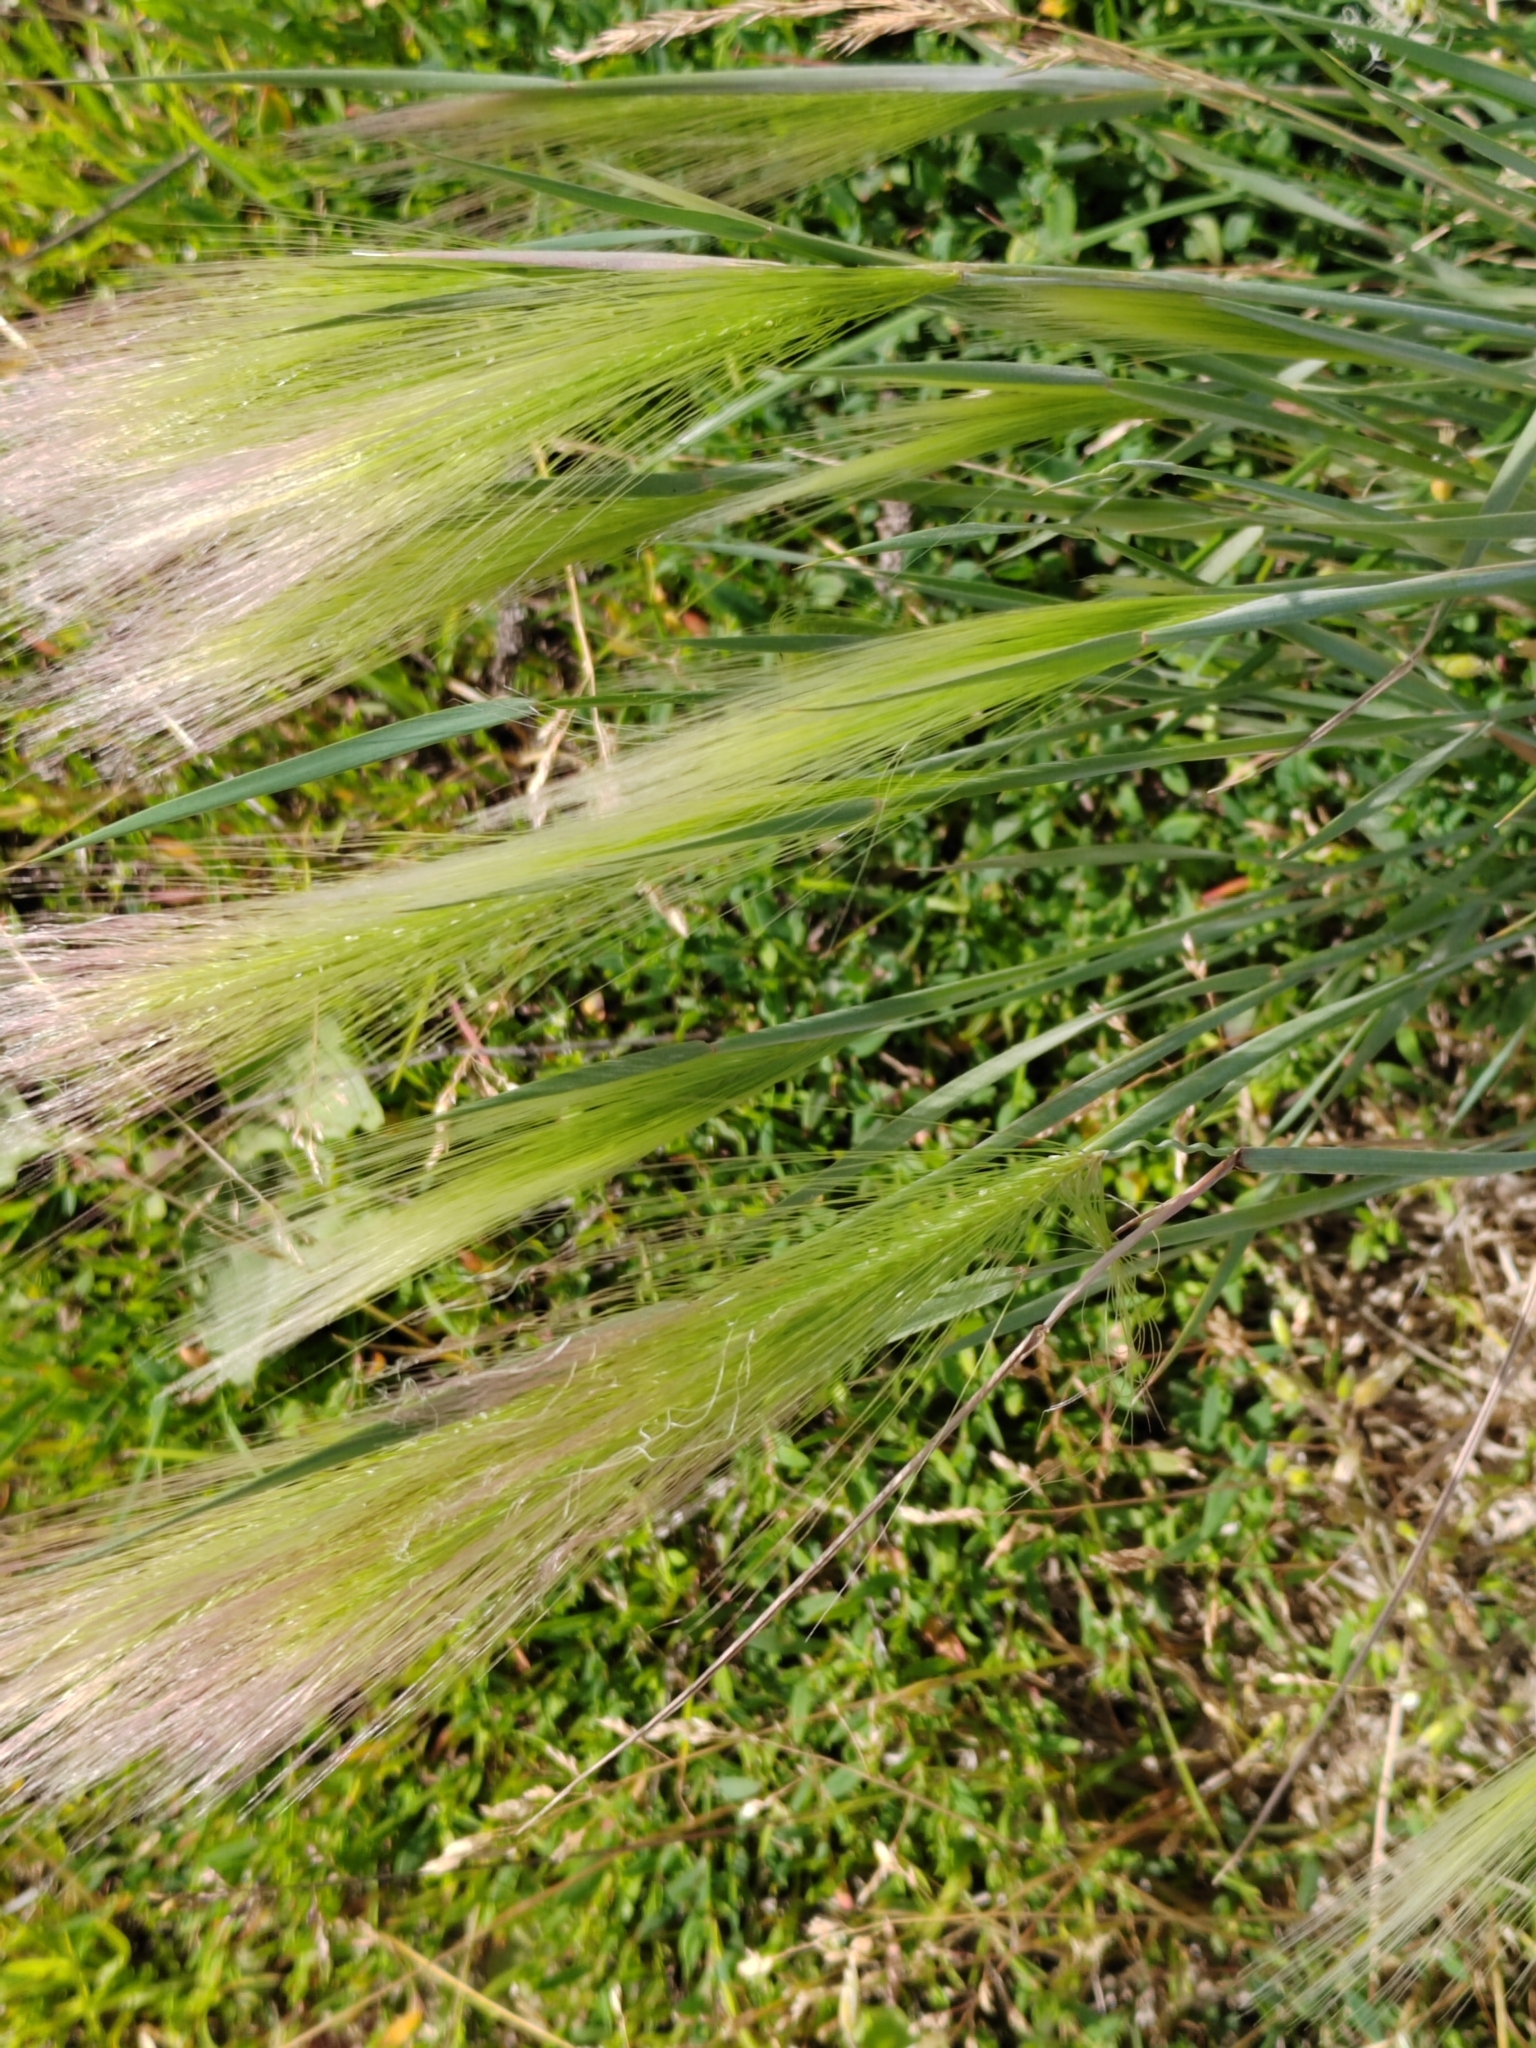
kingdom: Plantae
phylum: Tracheophyta
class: Liliopsida
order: Poales
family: Poaceae
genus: Hordeum
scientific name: Hordeum jubatum
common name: Foxtail barley
